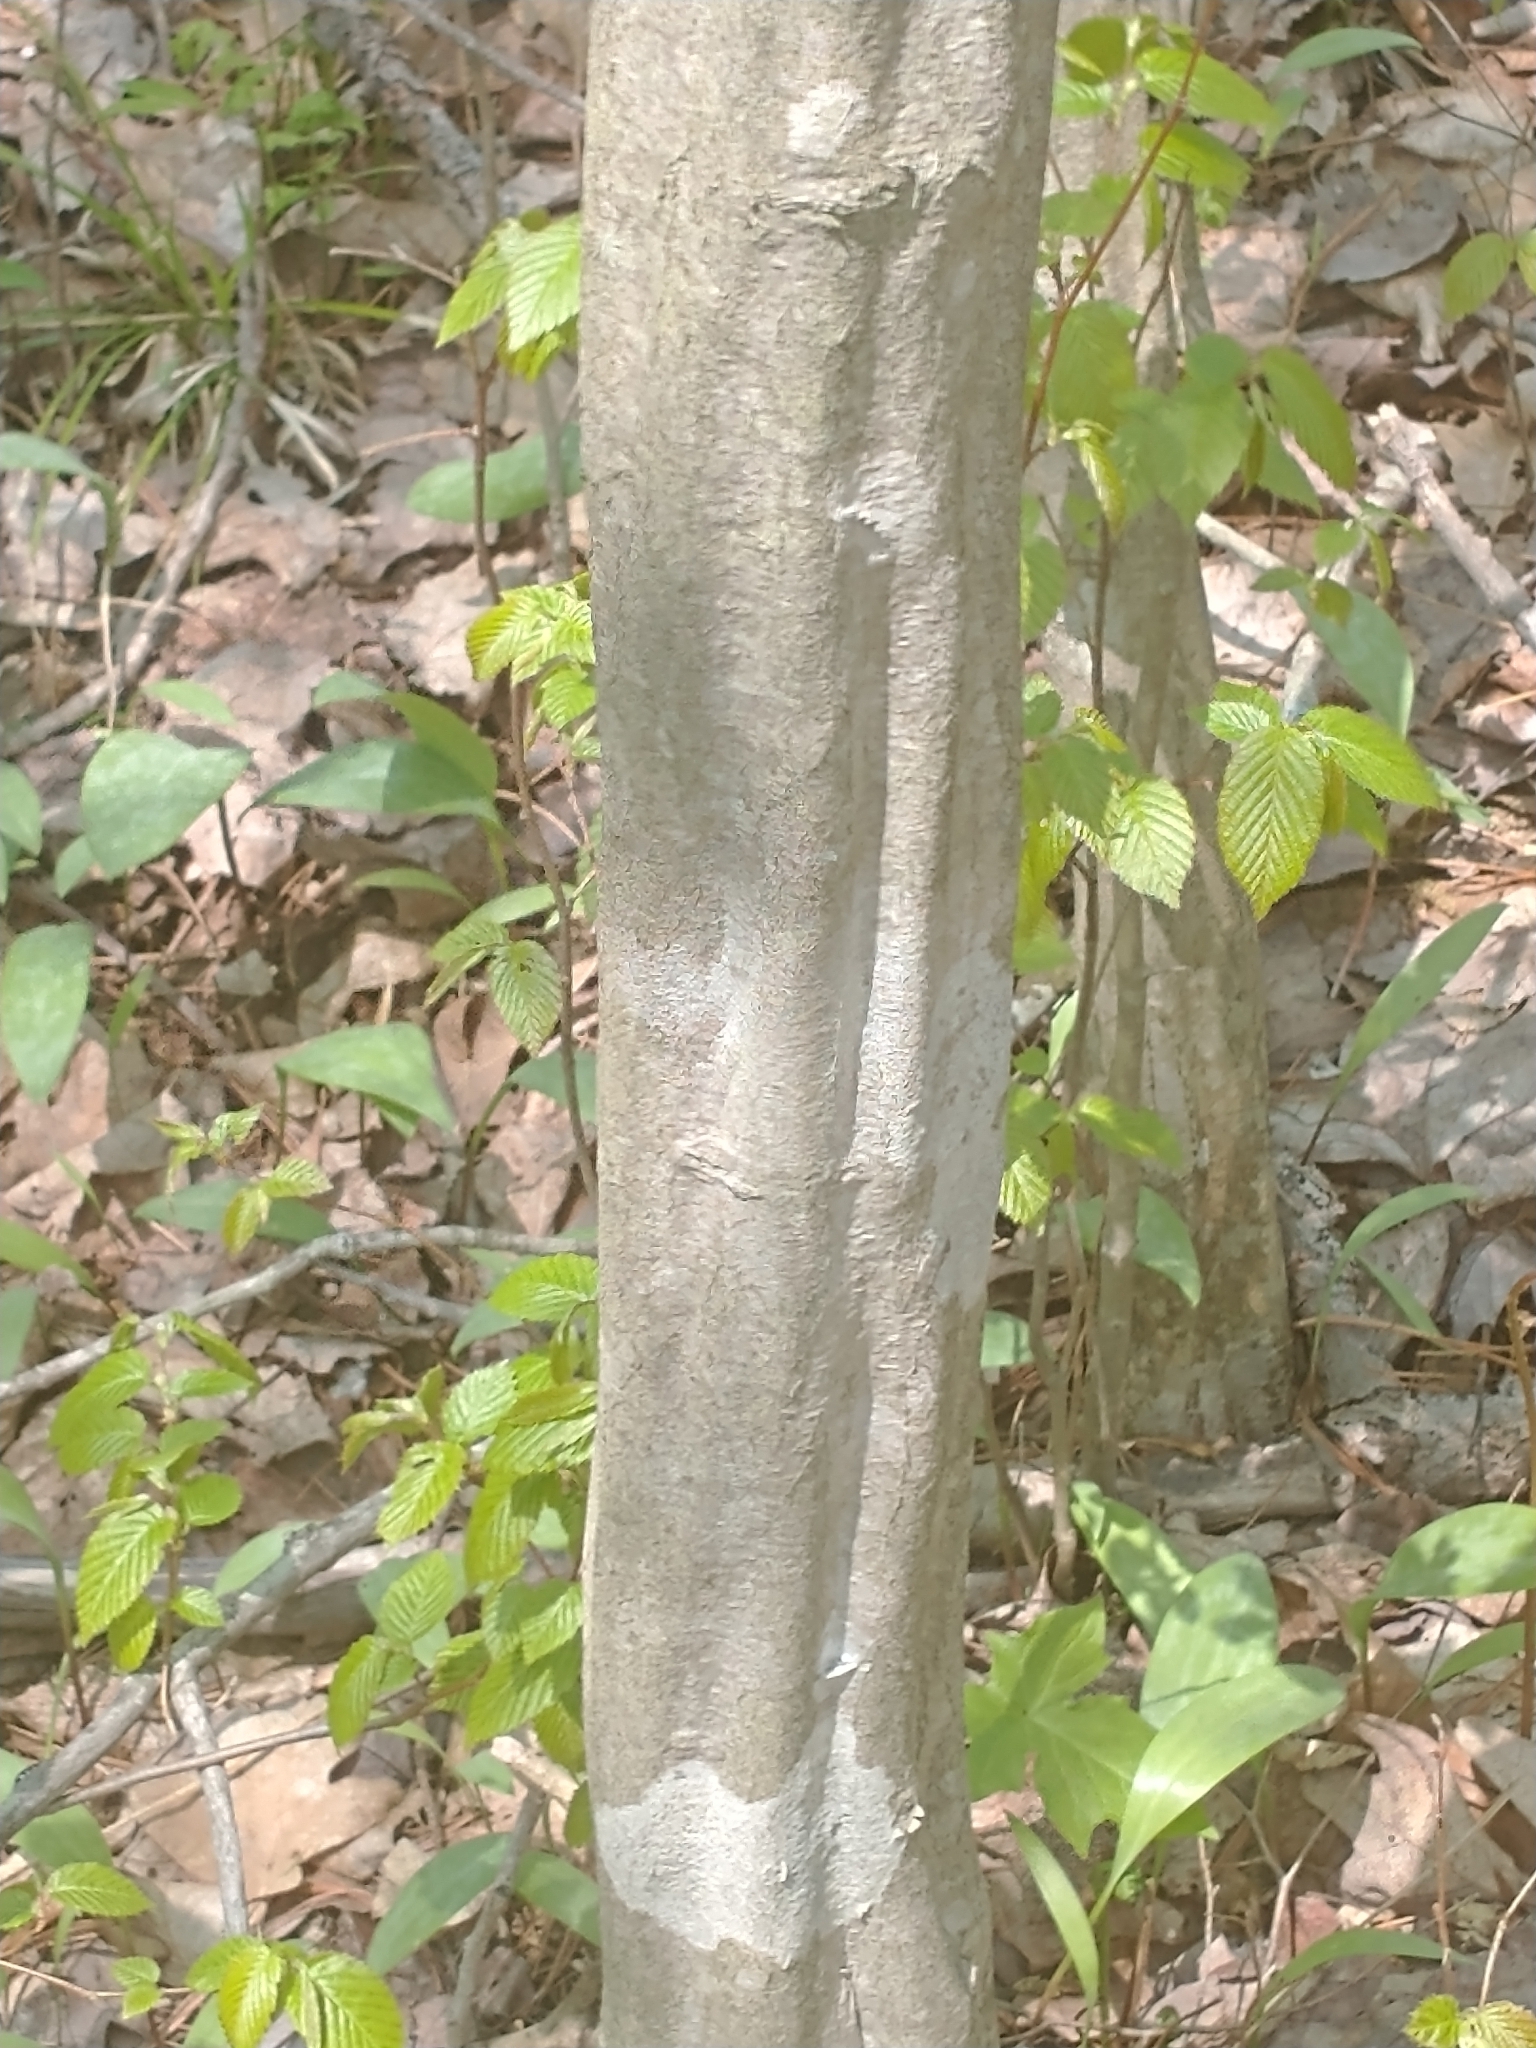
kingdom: Plantae
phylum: Tracheophyta
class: Magnoliopsida
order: Fagales
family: Betulaceae
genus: Carpinus
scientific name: Carpinus caroliniana
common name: American hornbeam
